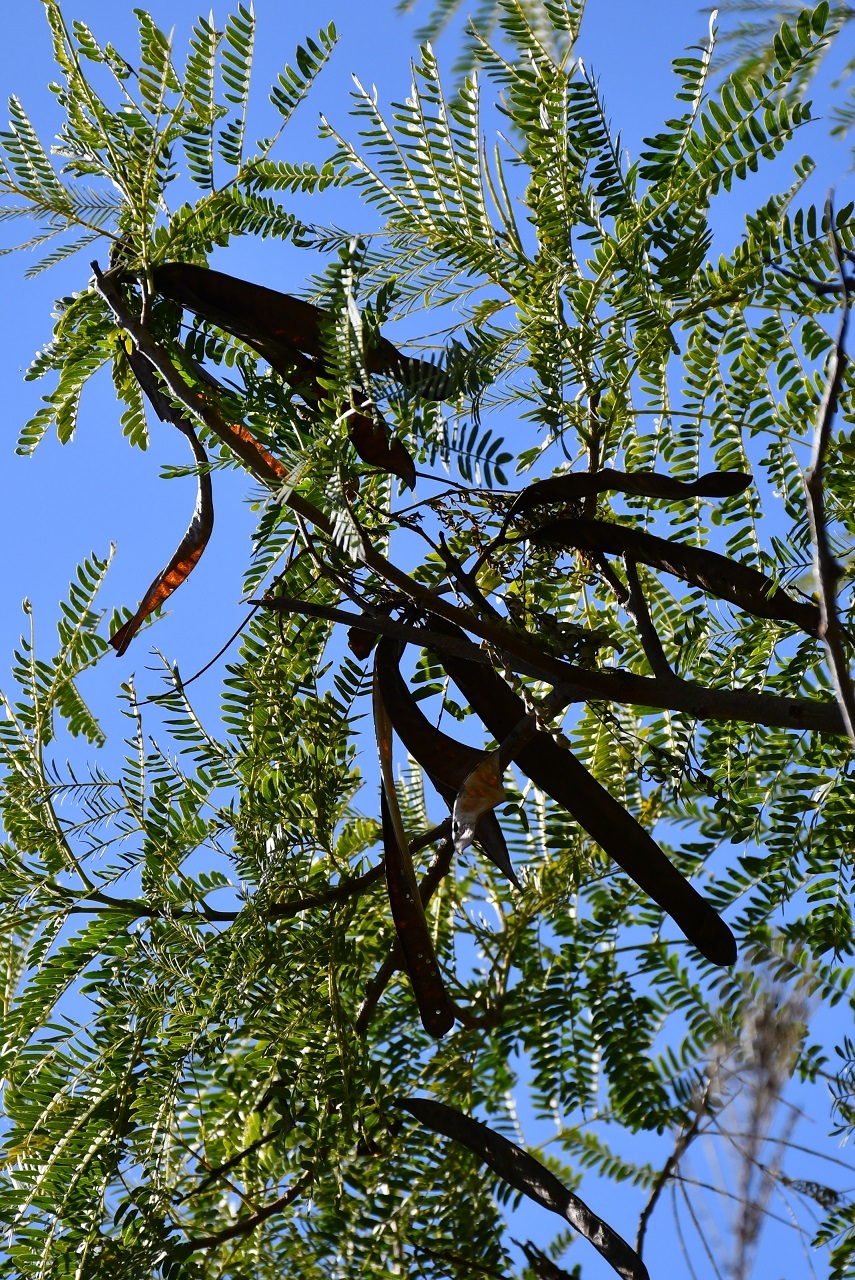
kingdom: Plantae
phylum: Tracheophyta
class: Magnoliopsida
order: Fabales
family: Fabaceae
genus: Leucaena
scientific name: Leucaena shannonii
